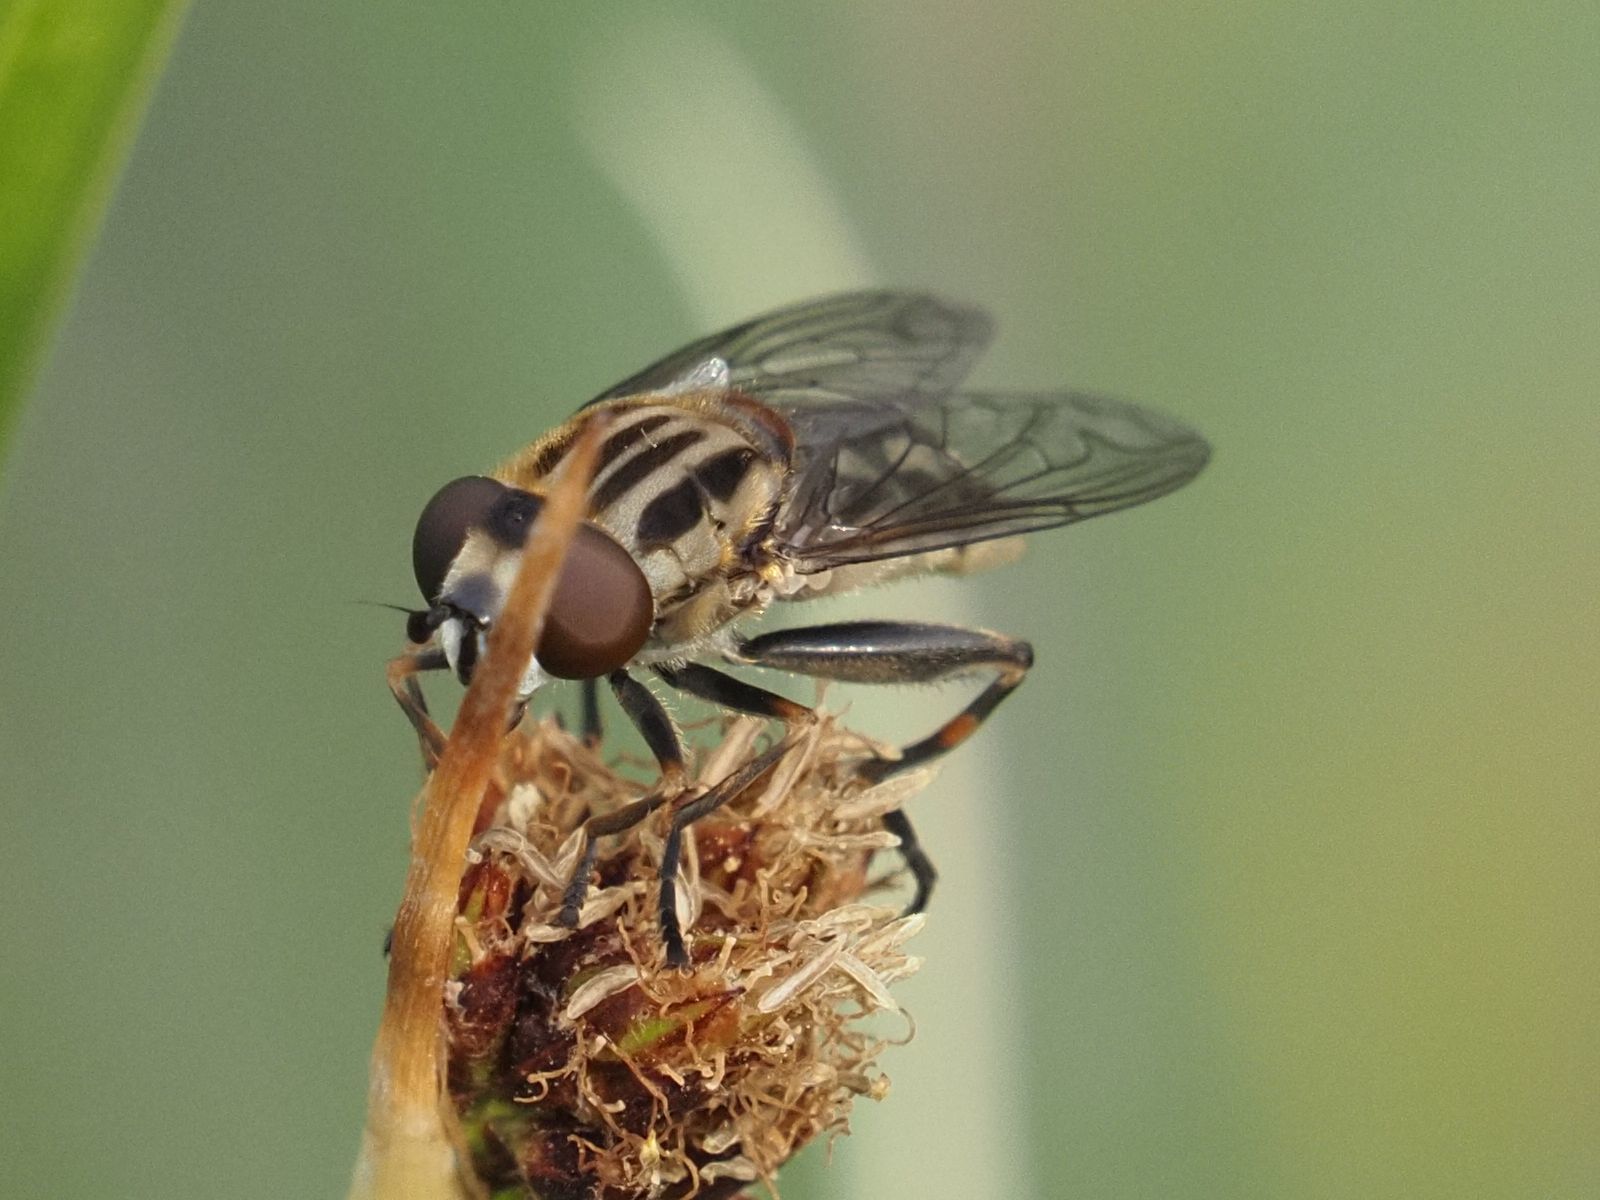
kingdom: Animalia
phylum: Arthropoda
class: Insecta
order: Diptera
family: Syrphidae
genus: Lejops
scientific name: Lejops vittatus
